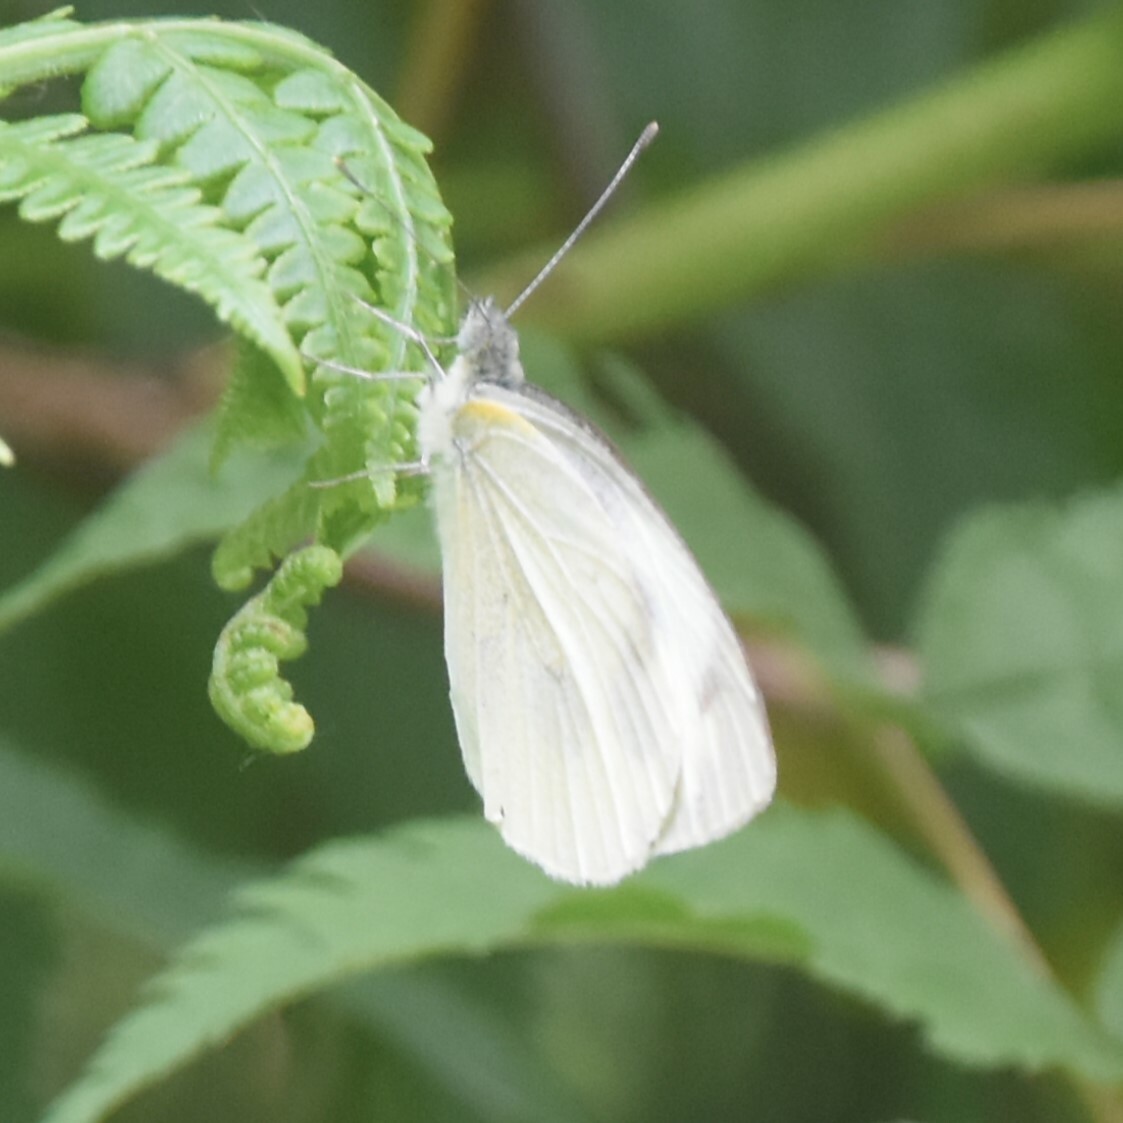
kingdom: Animalia
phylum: Arthropoda
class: Insecta
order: Lepidoptera
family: Pieridae
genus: Pieris
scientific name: Pieris canidia
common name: Indian cabbage white
